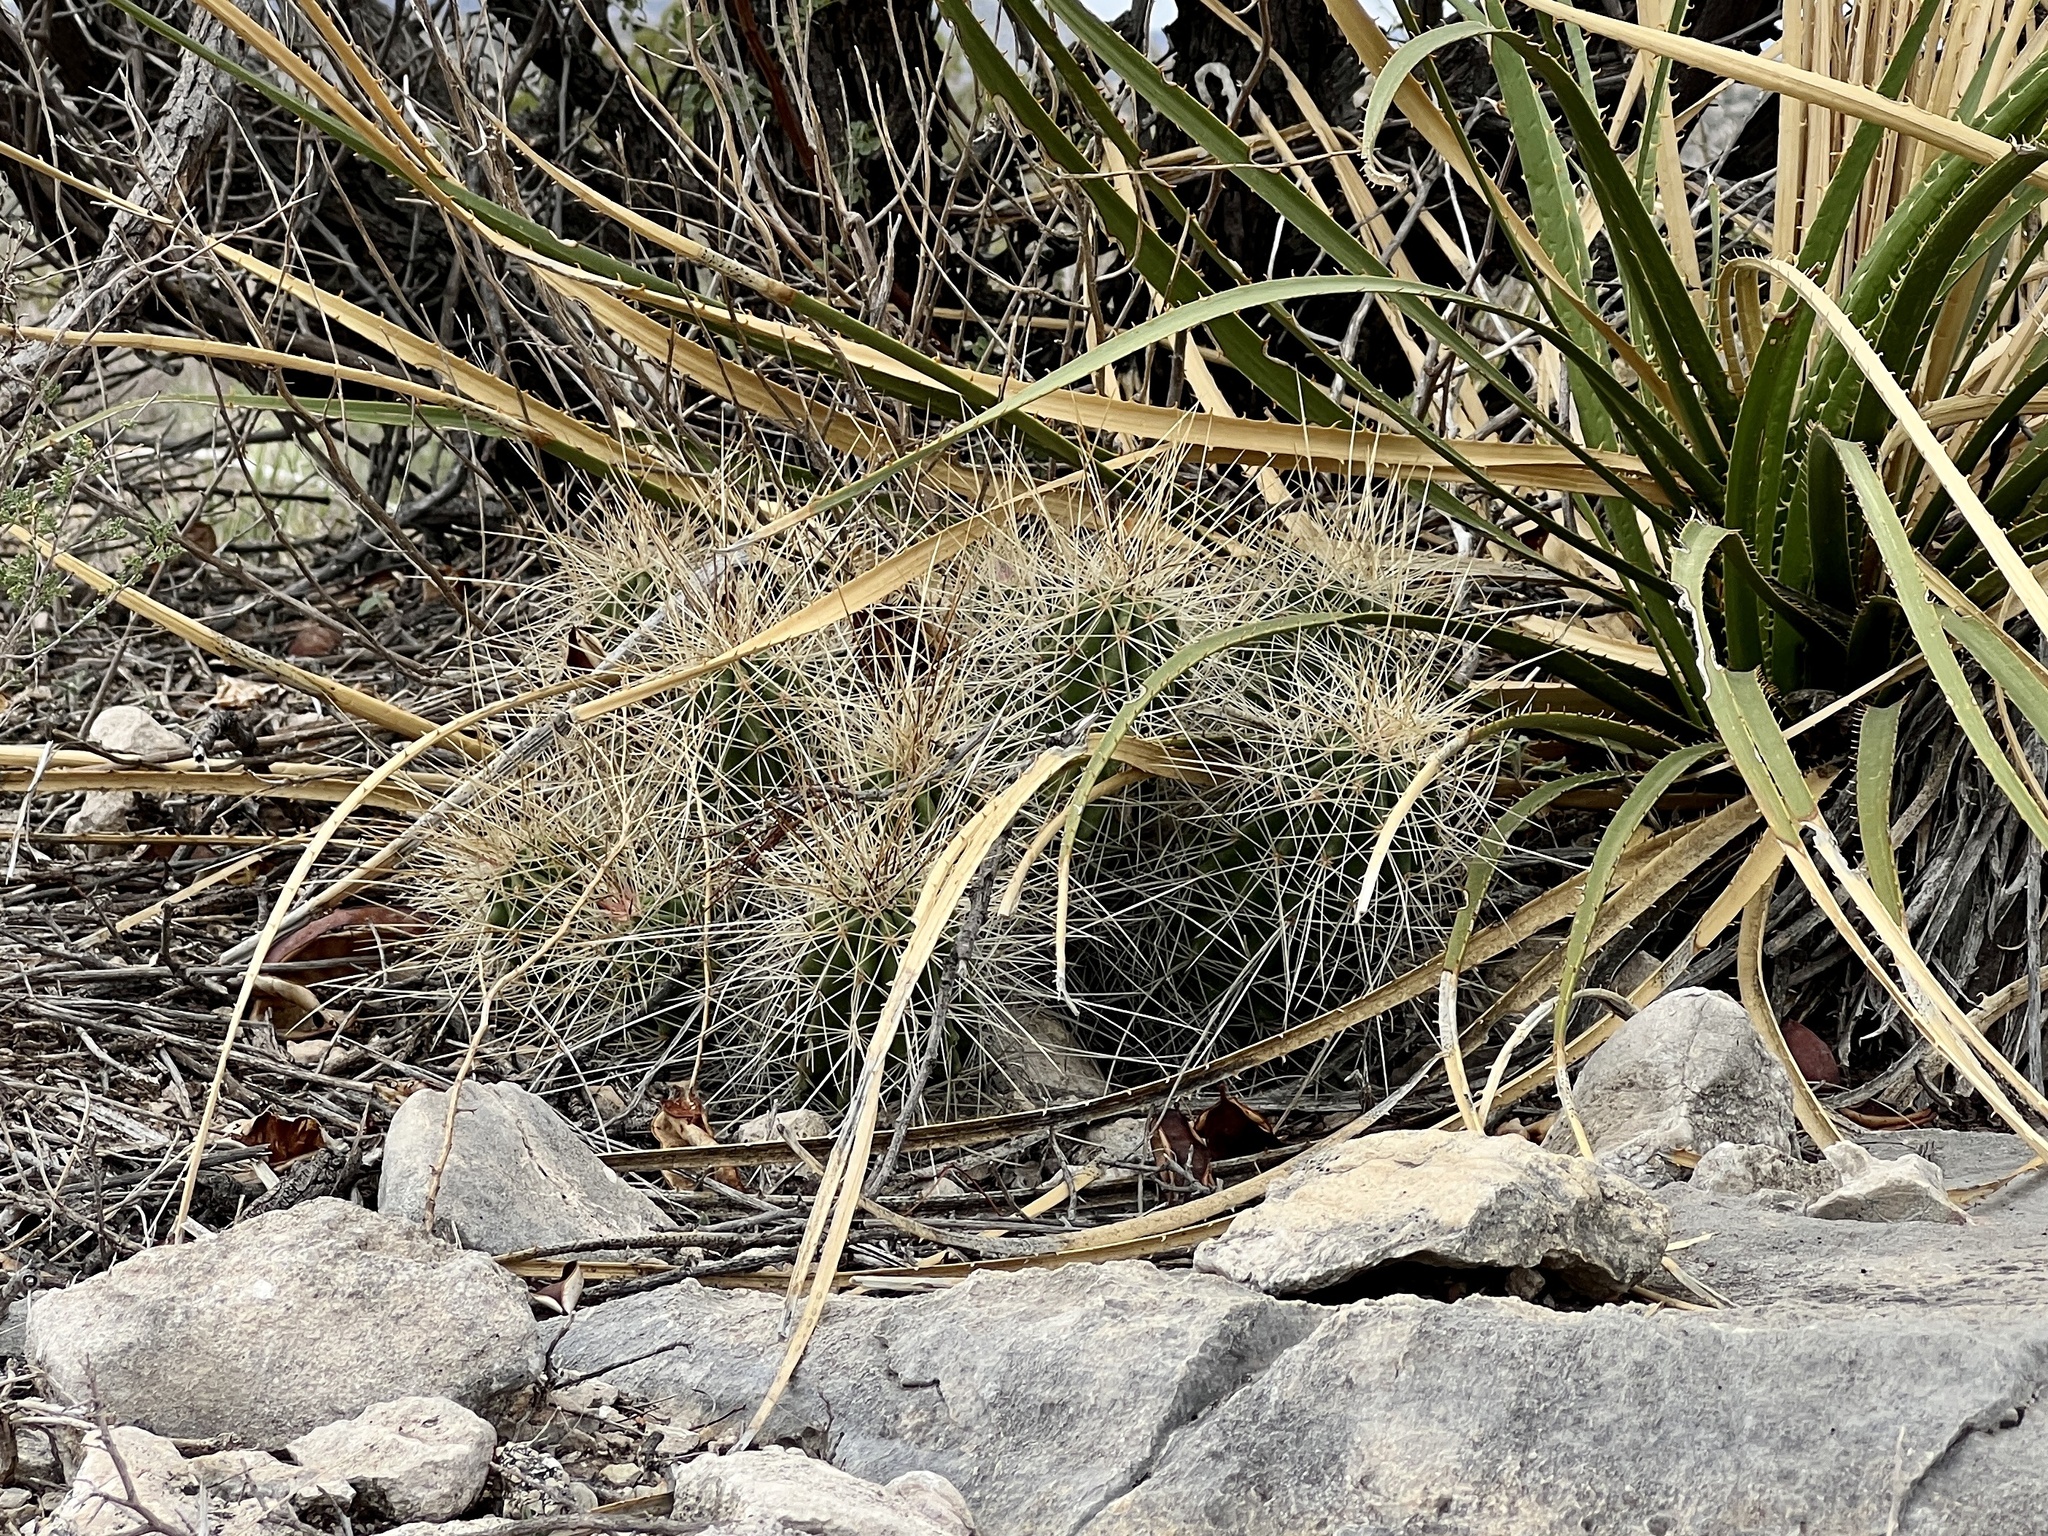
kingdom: Plantae
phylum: Tracheophyta
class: Magnoliopsida
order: Caryophyllales
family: Cactaceae
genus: Echinocereus
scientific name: Echinocereus stramineus
